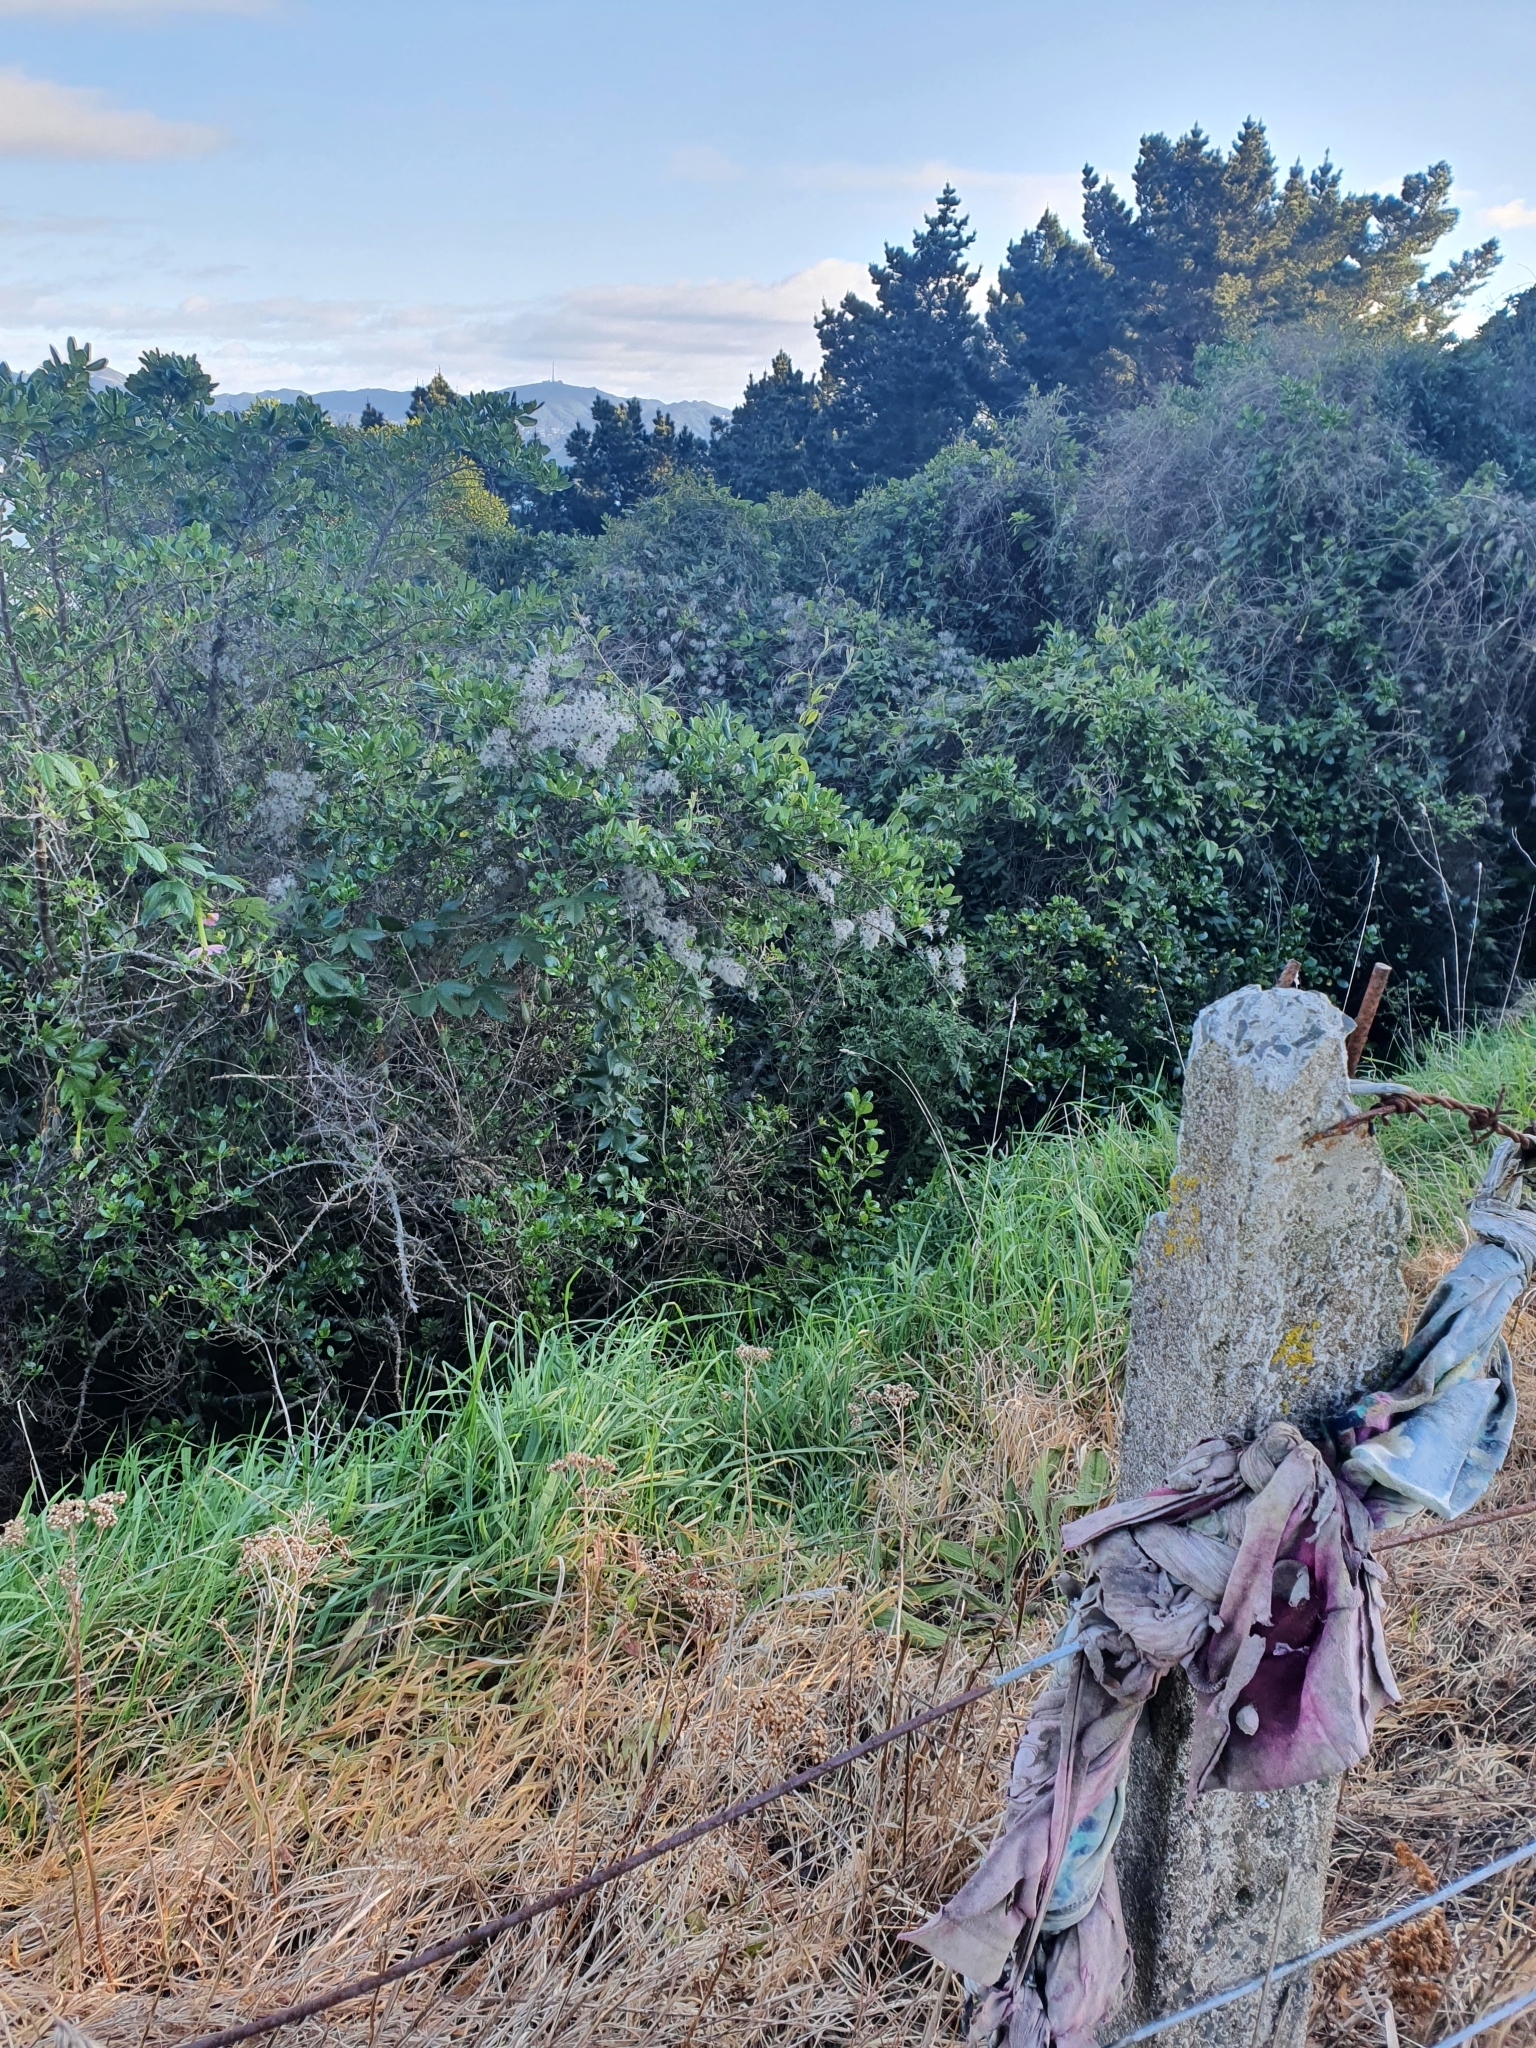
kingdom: Plantae
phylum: Tracheophyta
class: Magnoliopsida
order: Ranunculales
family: Ranunculaceae
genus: Clematis
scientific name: Clematis vitalba
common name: Evergreen clematis
